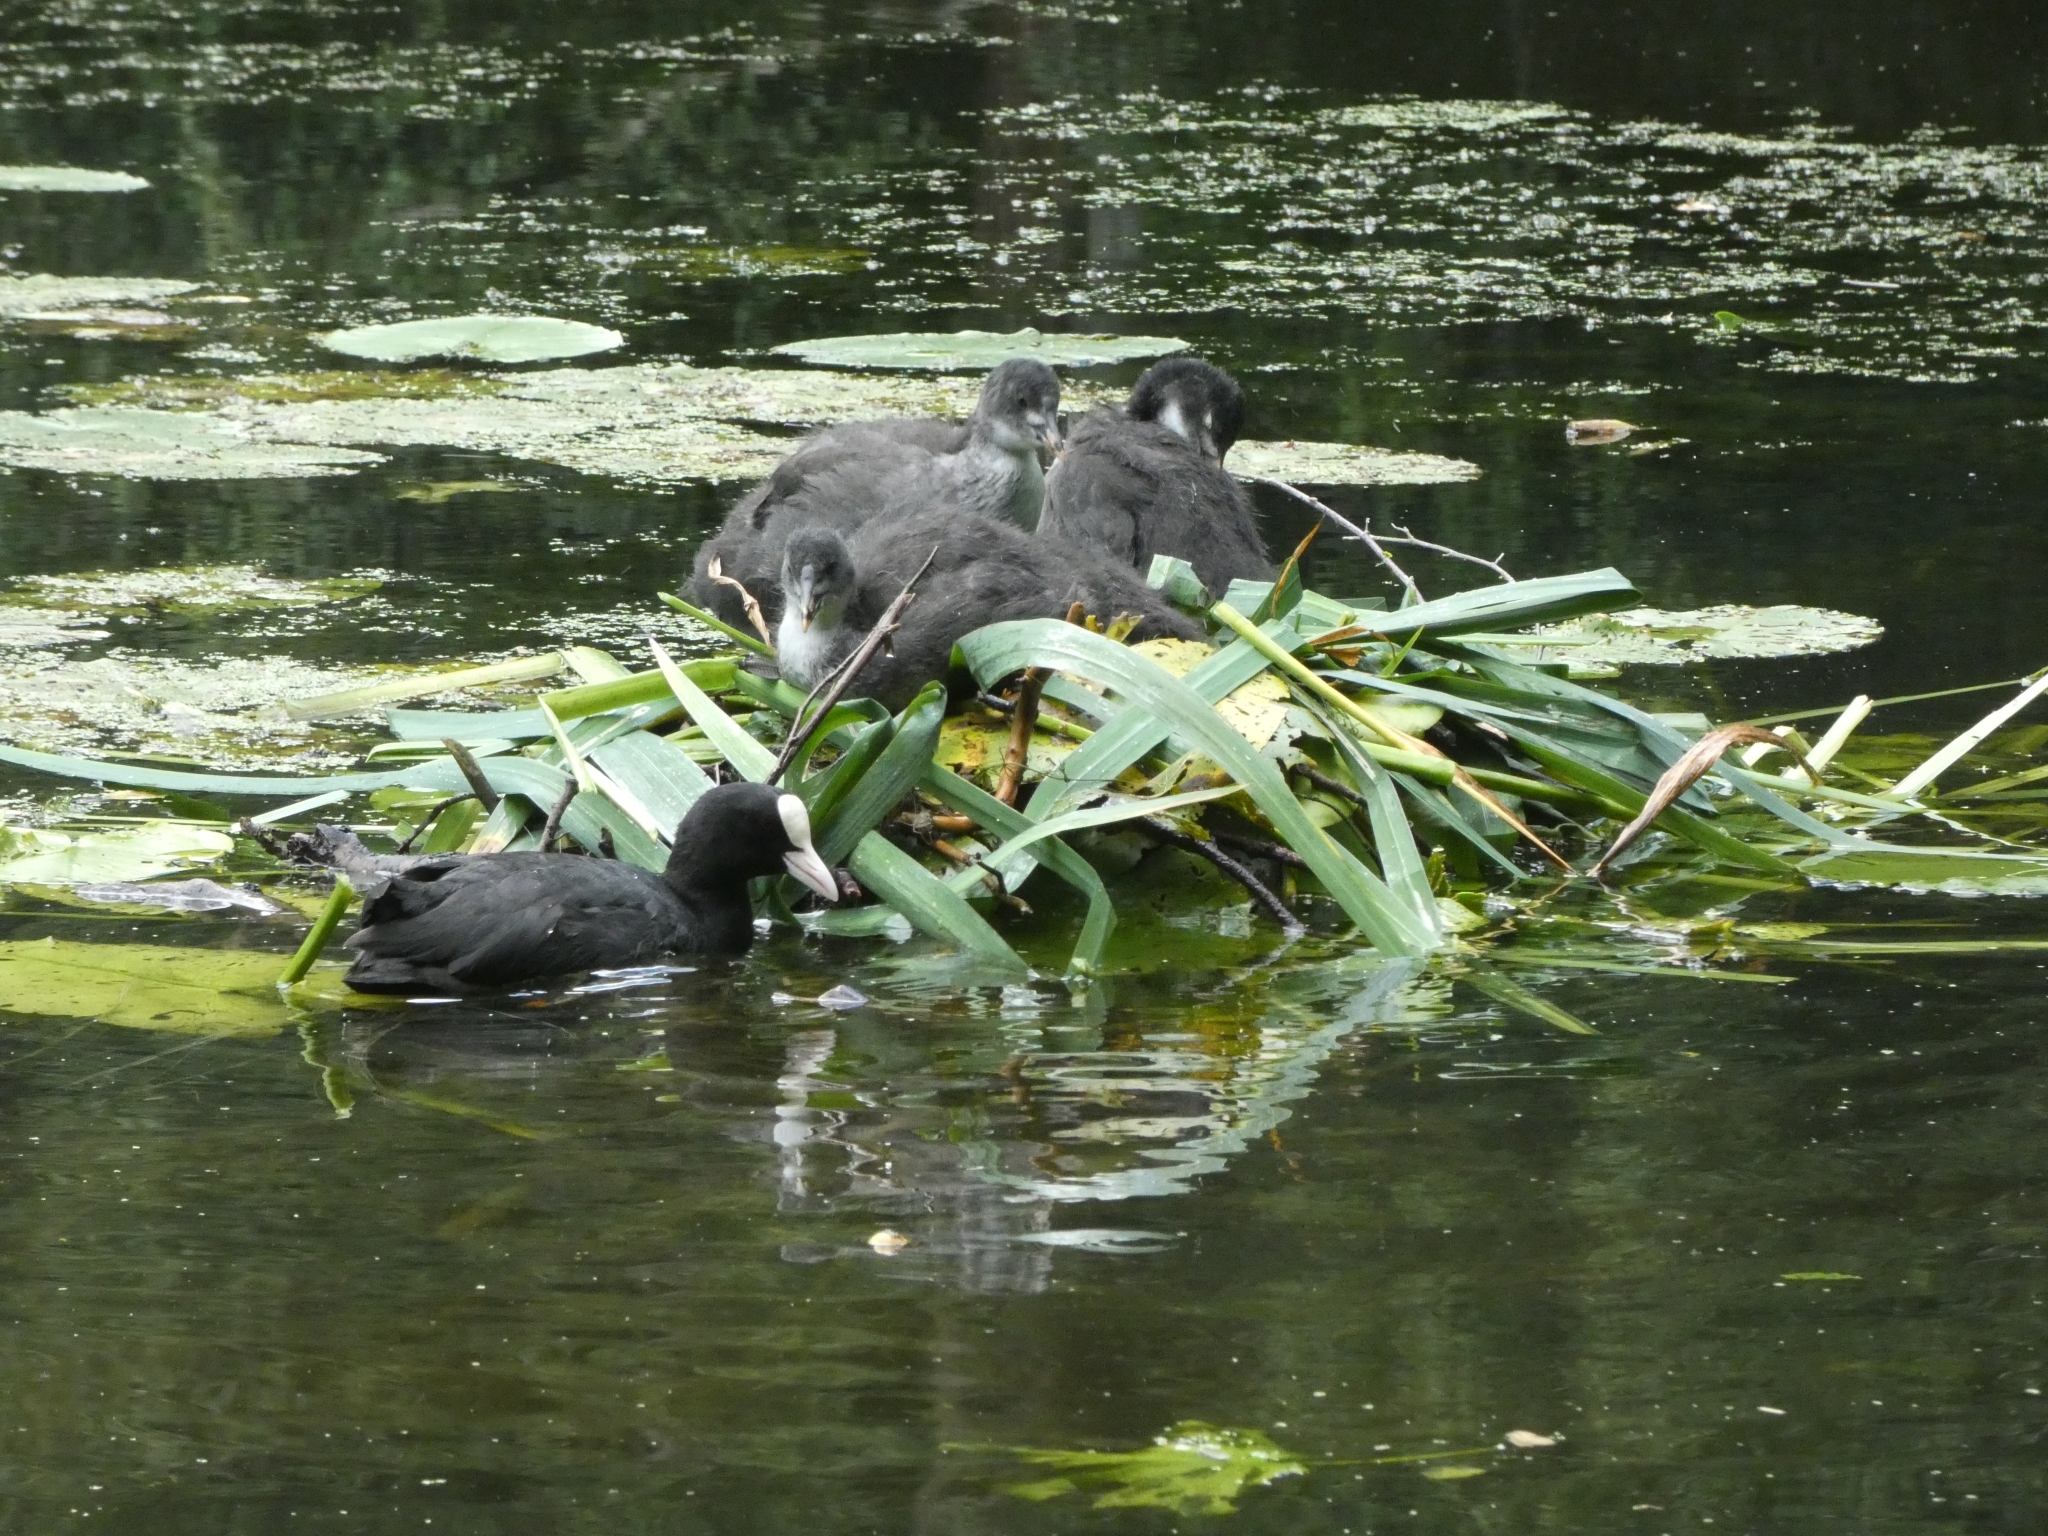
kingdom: Animalia
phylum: Chordata
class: Aves
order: Gruiformes
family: Rallidae
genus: Fulica
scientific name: Fulica atra
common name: Eurasian coot
